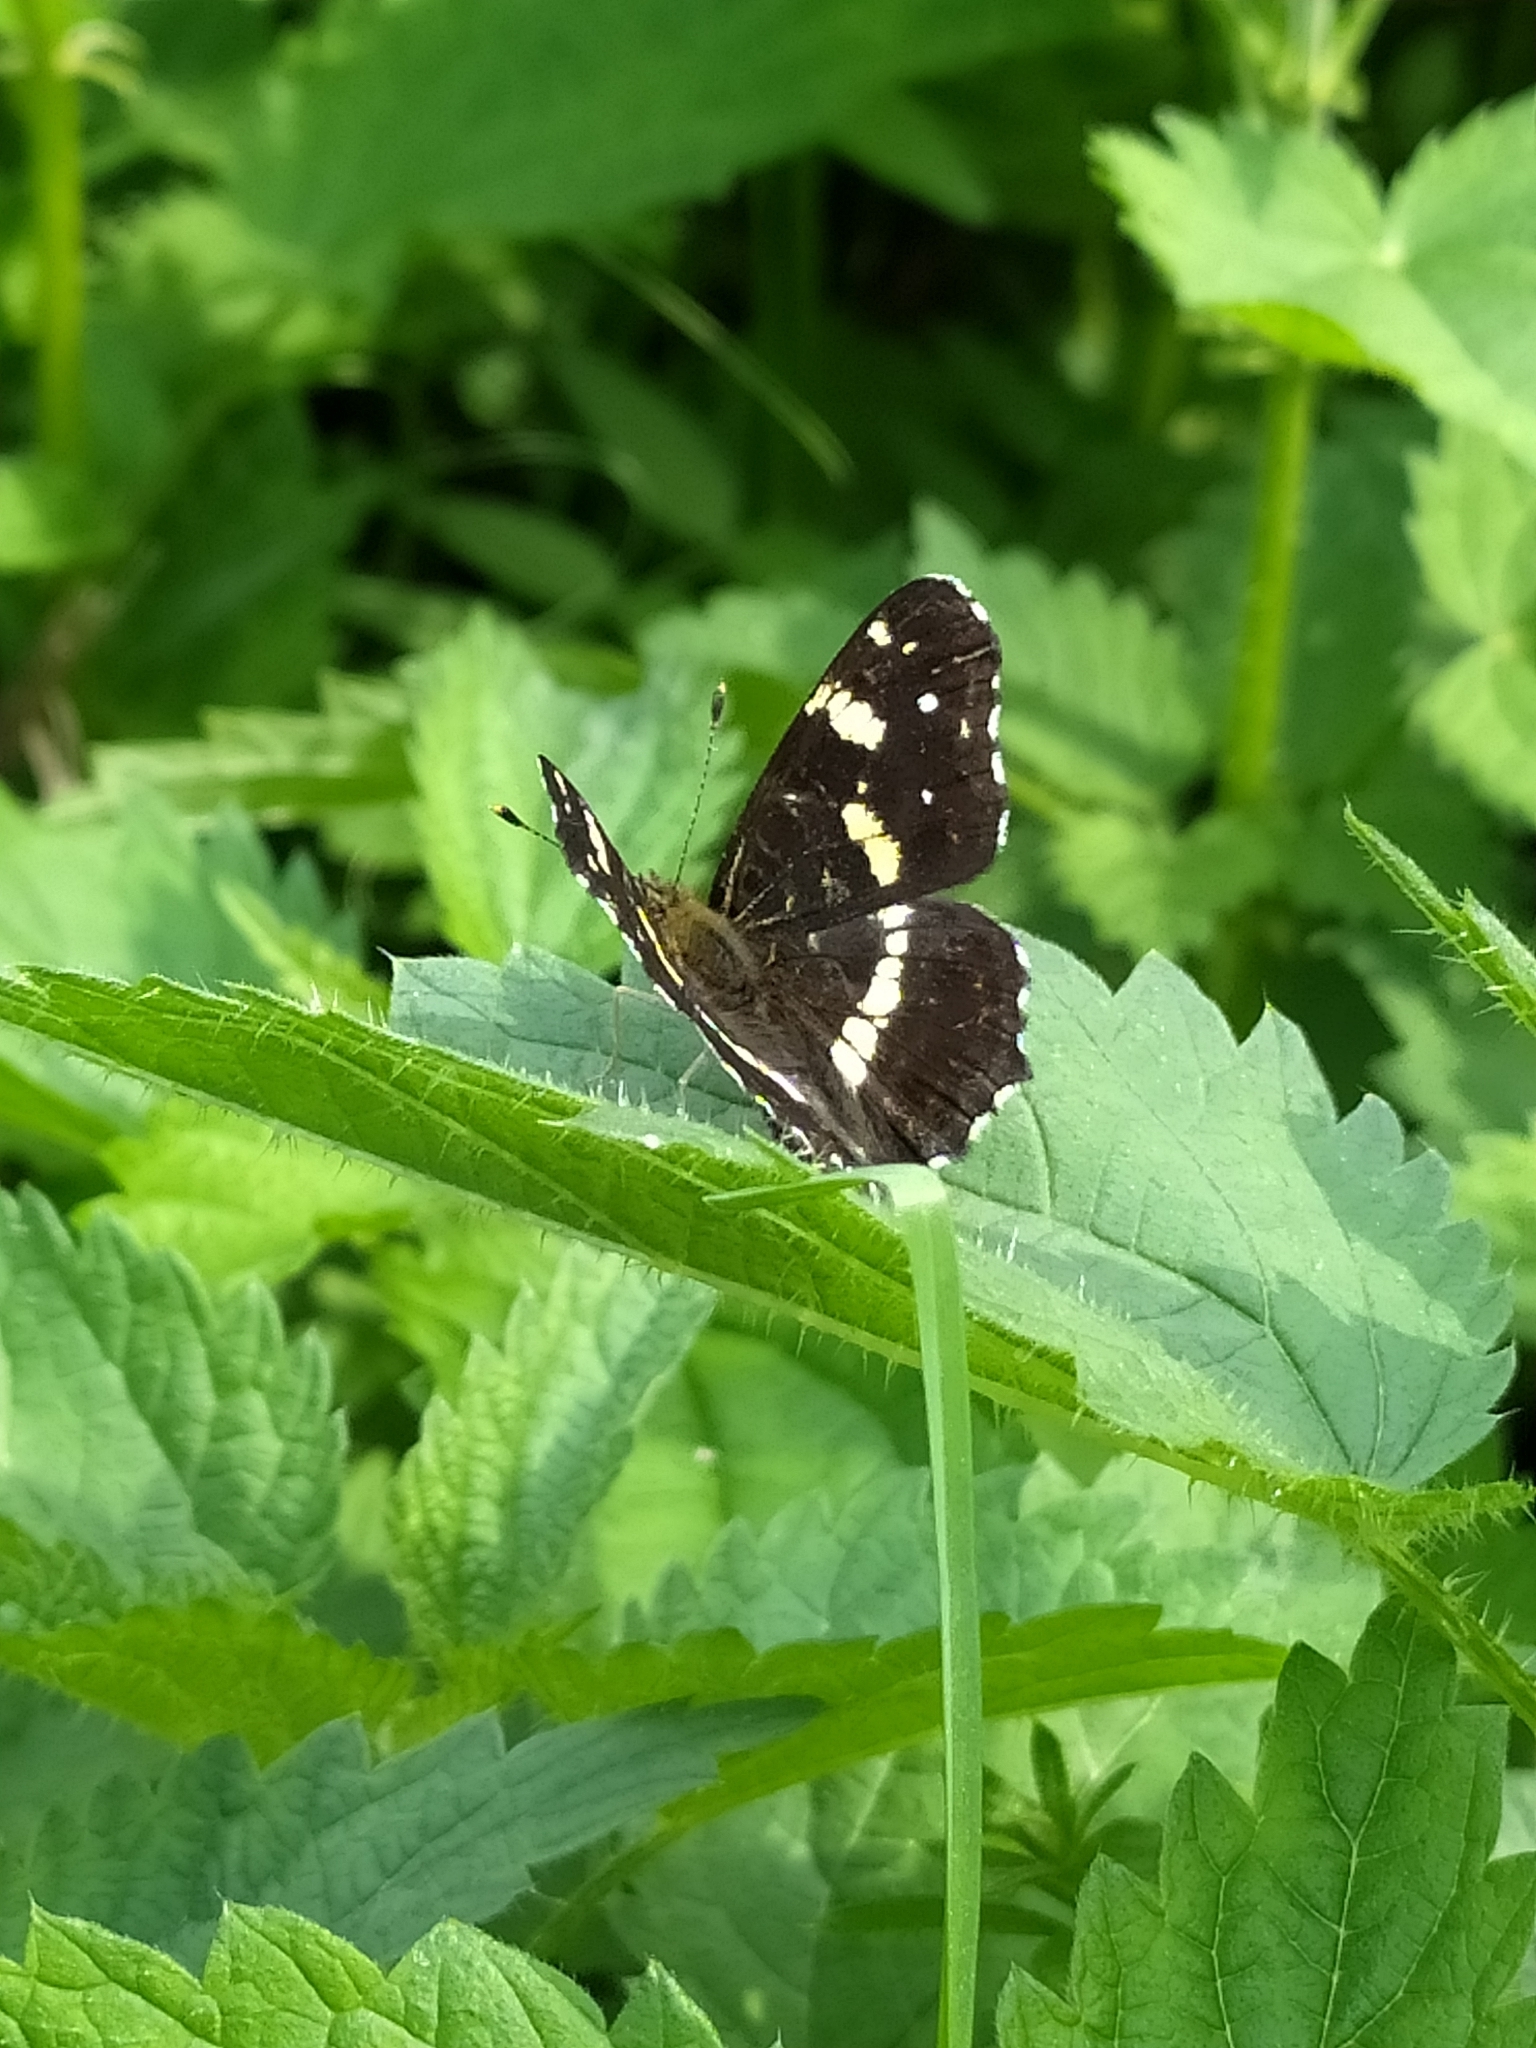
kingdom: Animalia
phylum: Arthropoda
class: Insecta
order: Lepidoptera
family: Nymphalidae
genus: Araschnia
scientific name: Araschnia levana
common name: Map butterfly
